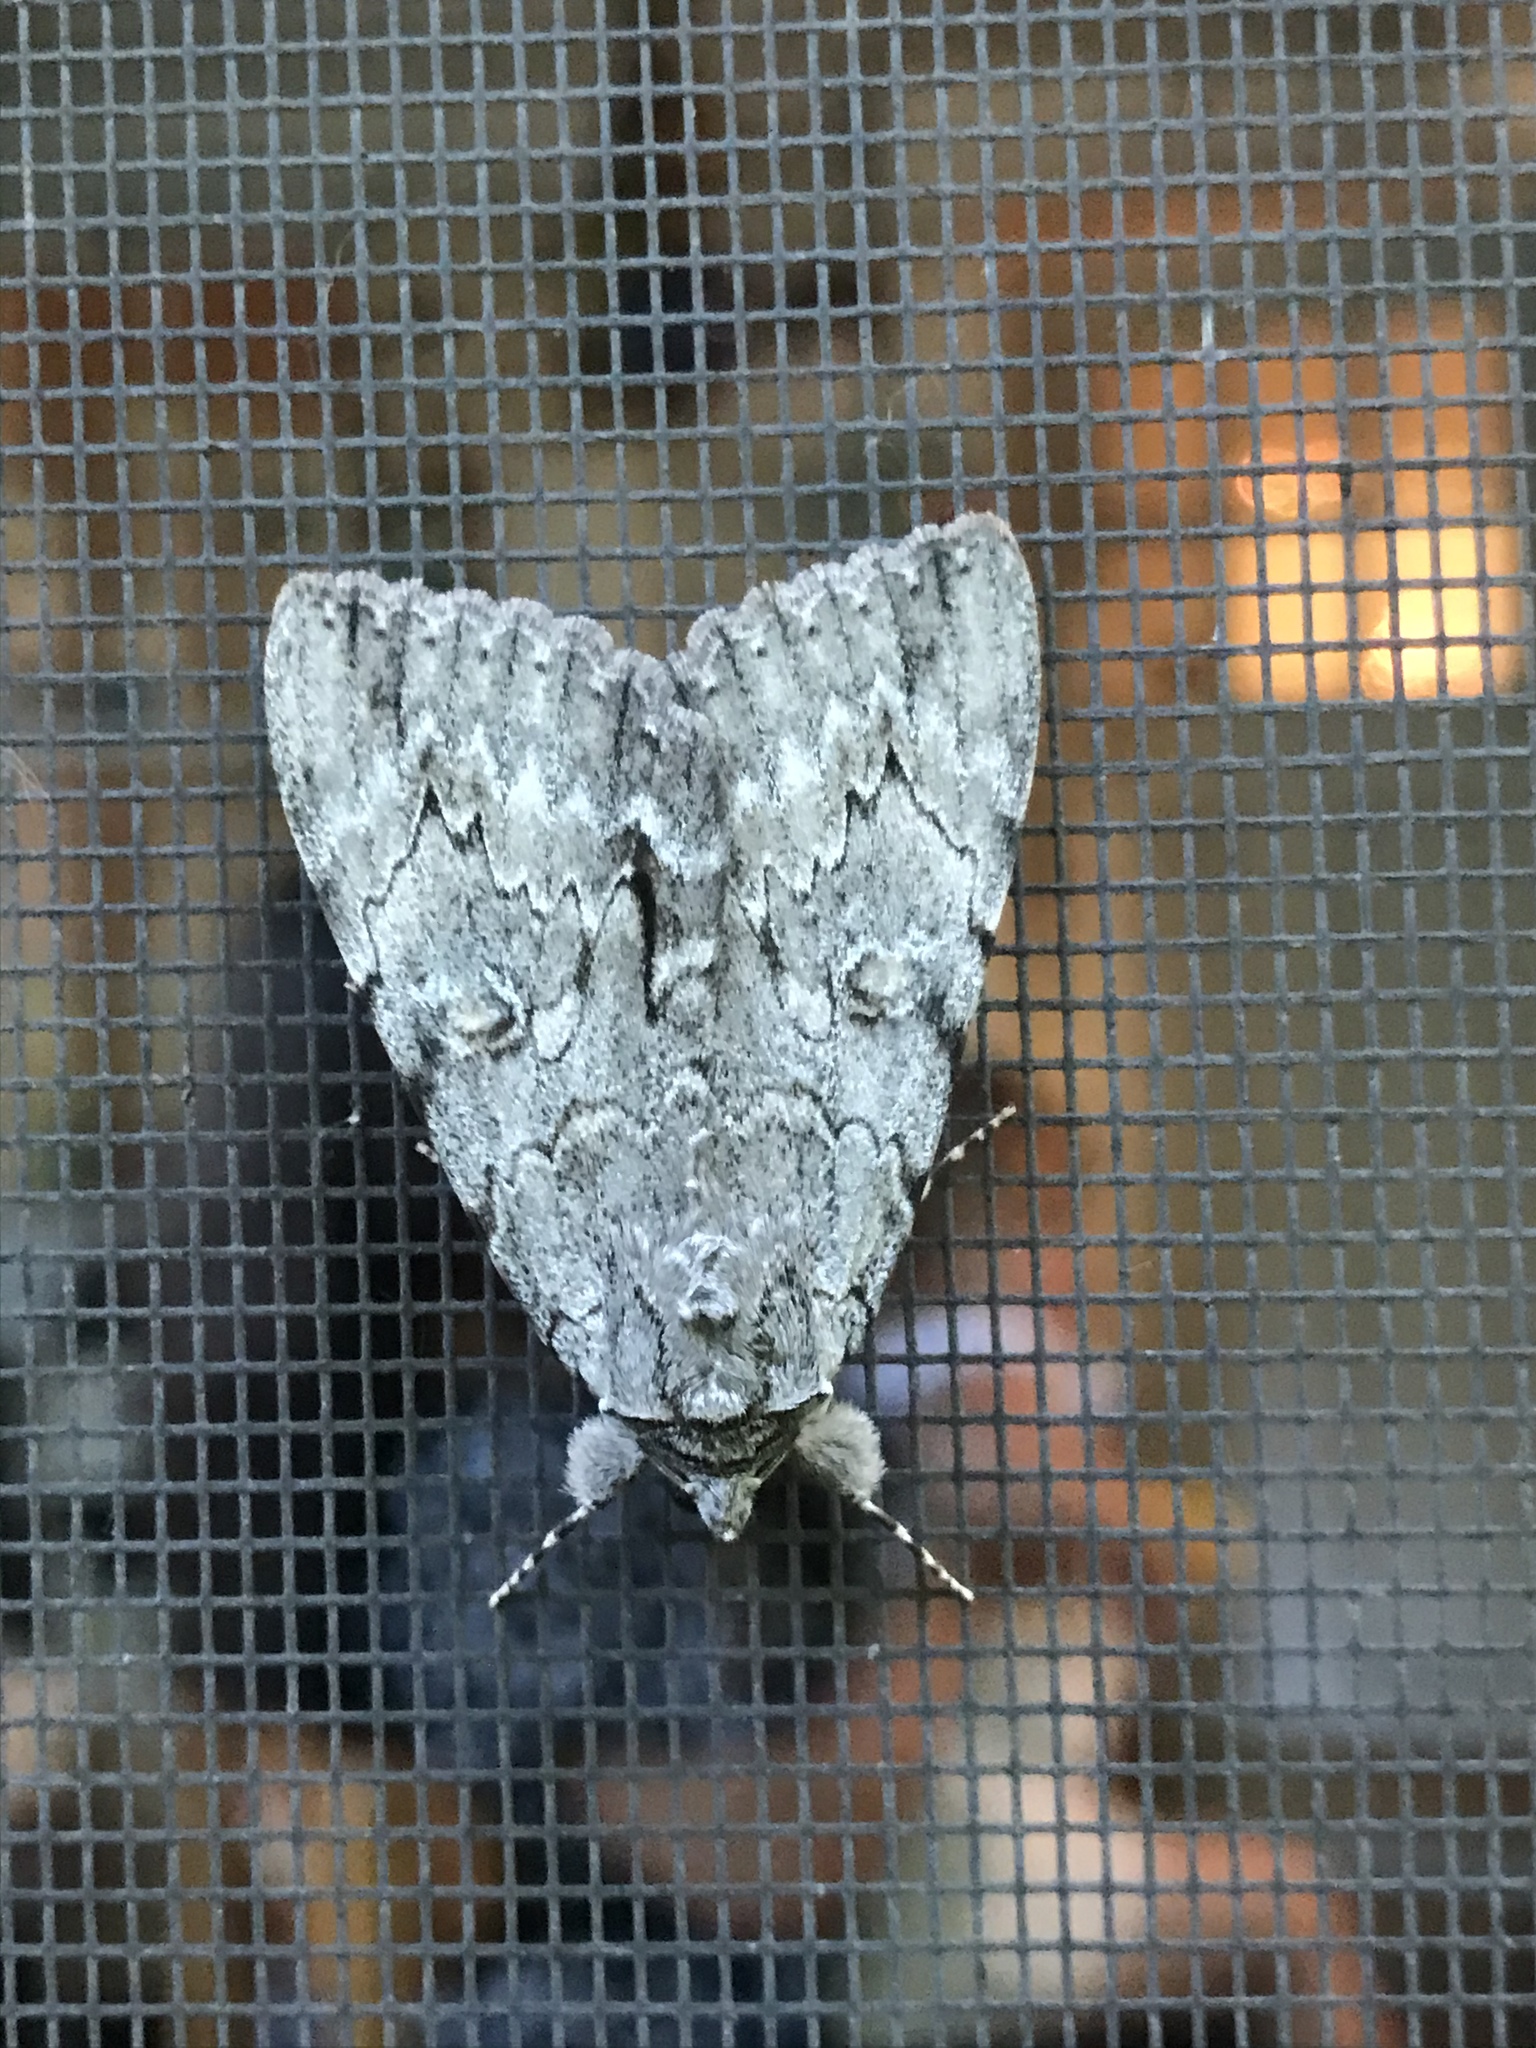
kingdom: Animalia
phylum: Arthropoda
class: Insecta
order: Lepidoptera
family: Erebidae
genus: Catocala
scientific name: Catocala habilis
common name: Habilis underwing
